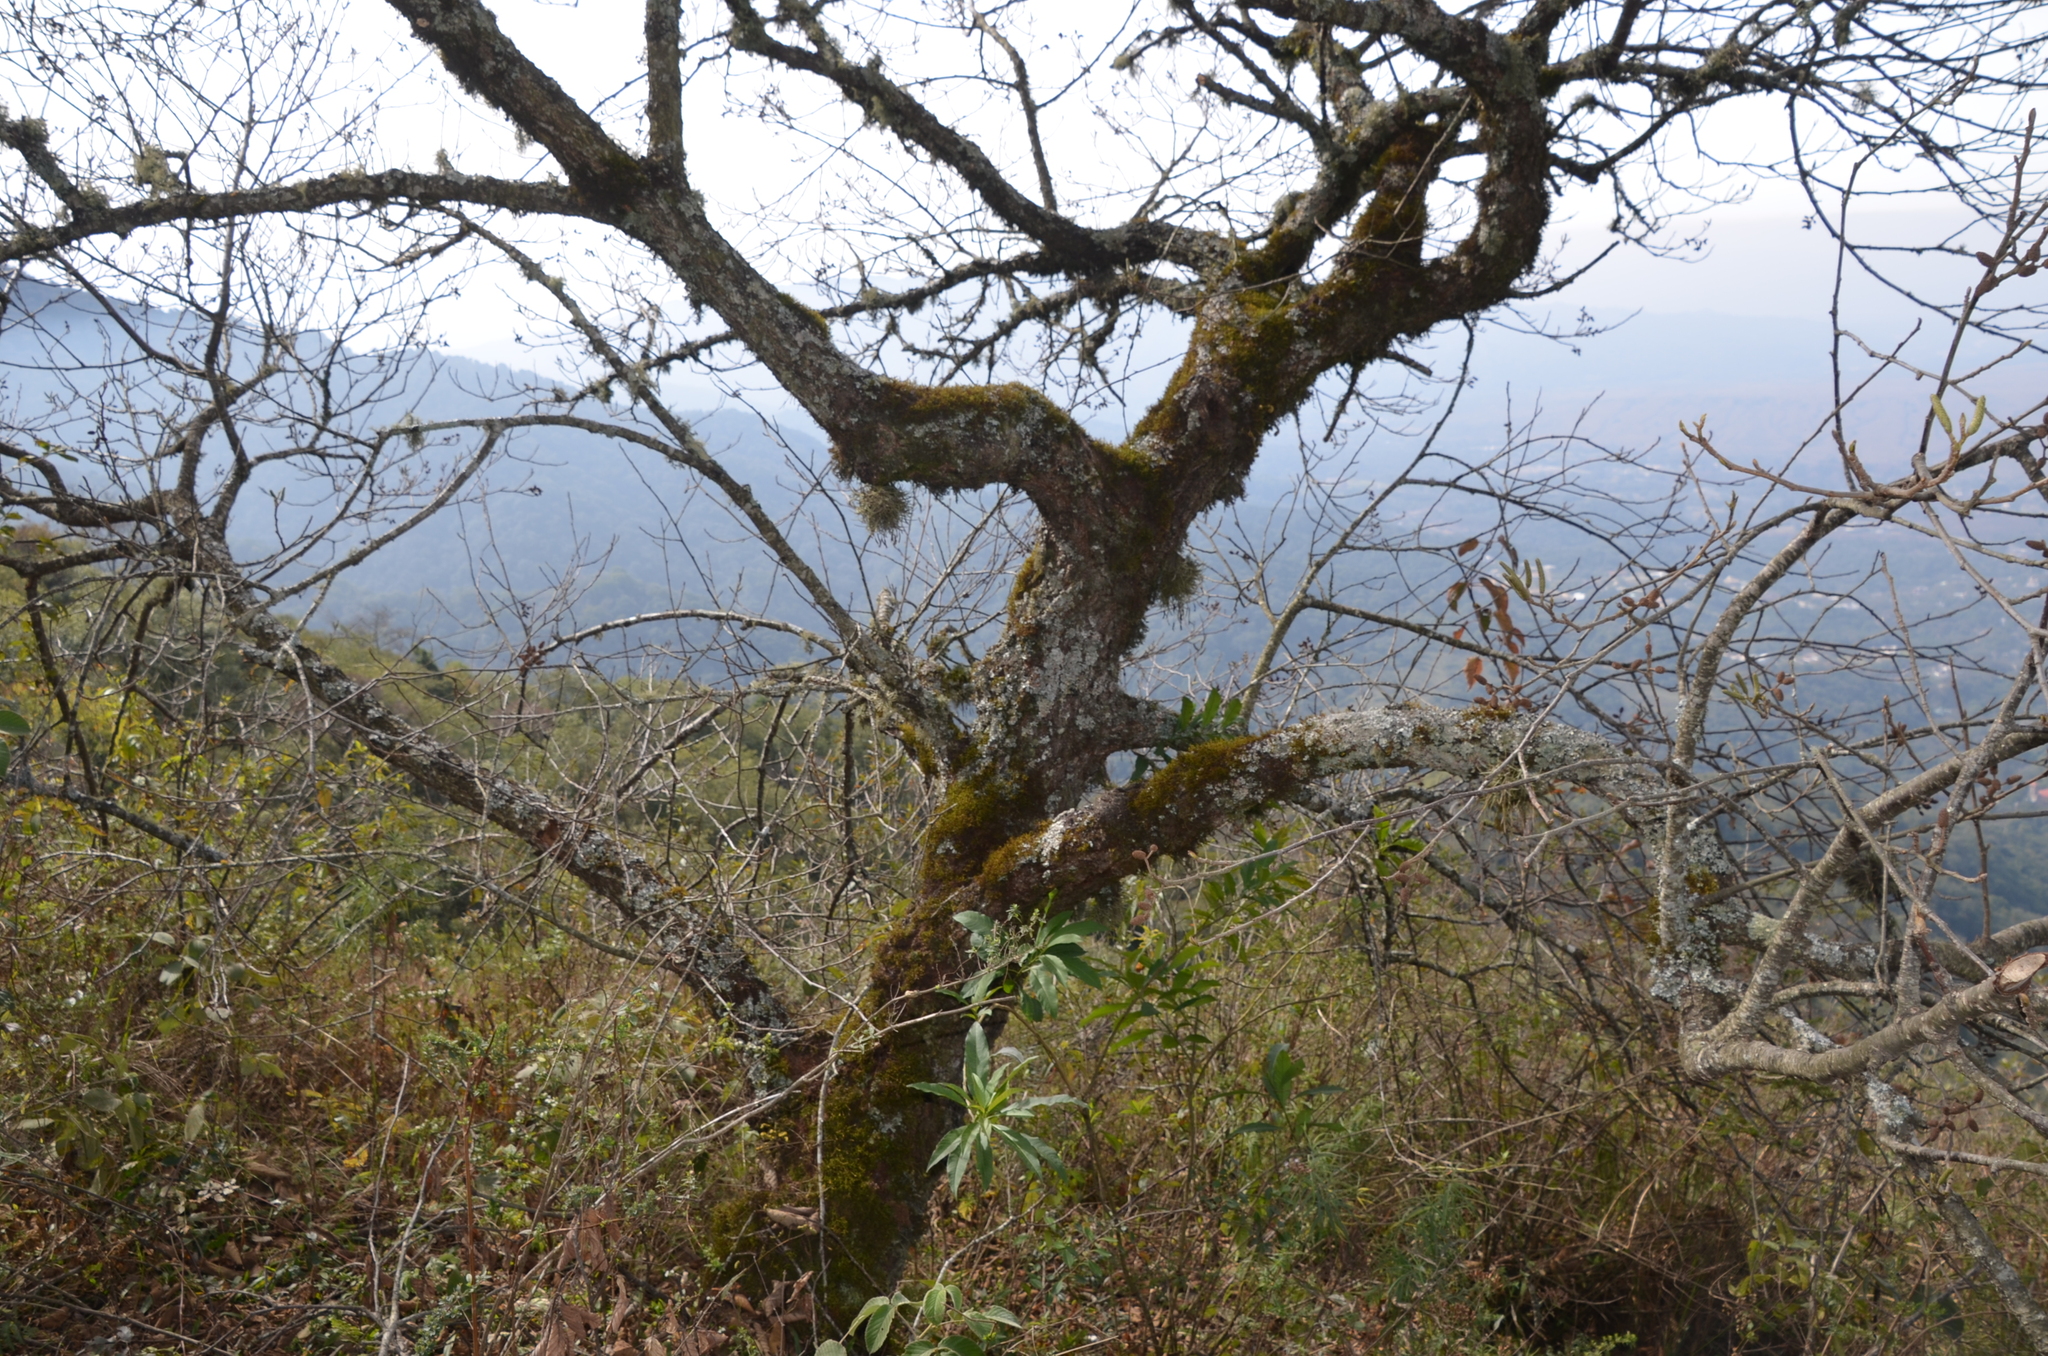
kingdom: Plantae
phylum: Tracheophyta
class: Magnoliopsida
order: Fagales
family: Betulaceae
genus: Alnus
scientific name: Alnus acuminata
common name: Alder
